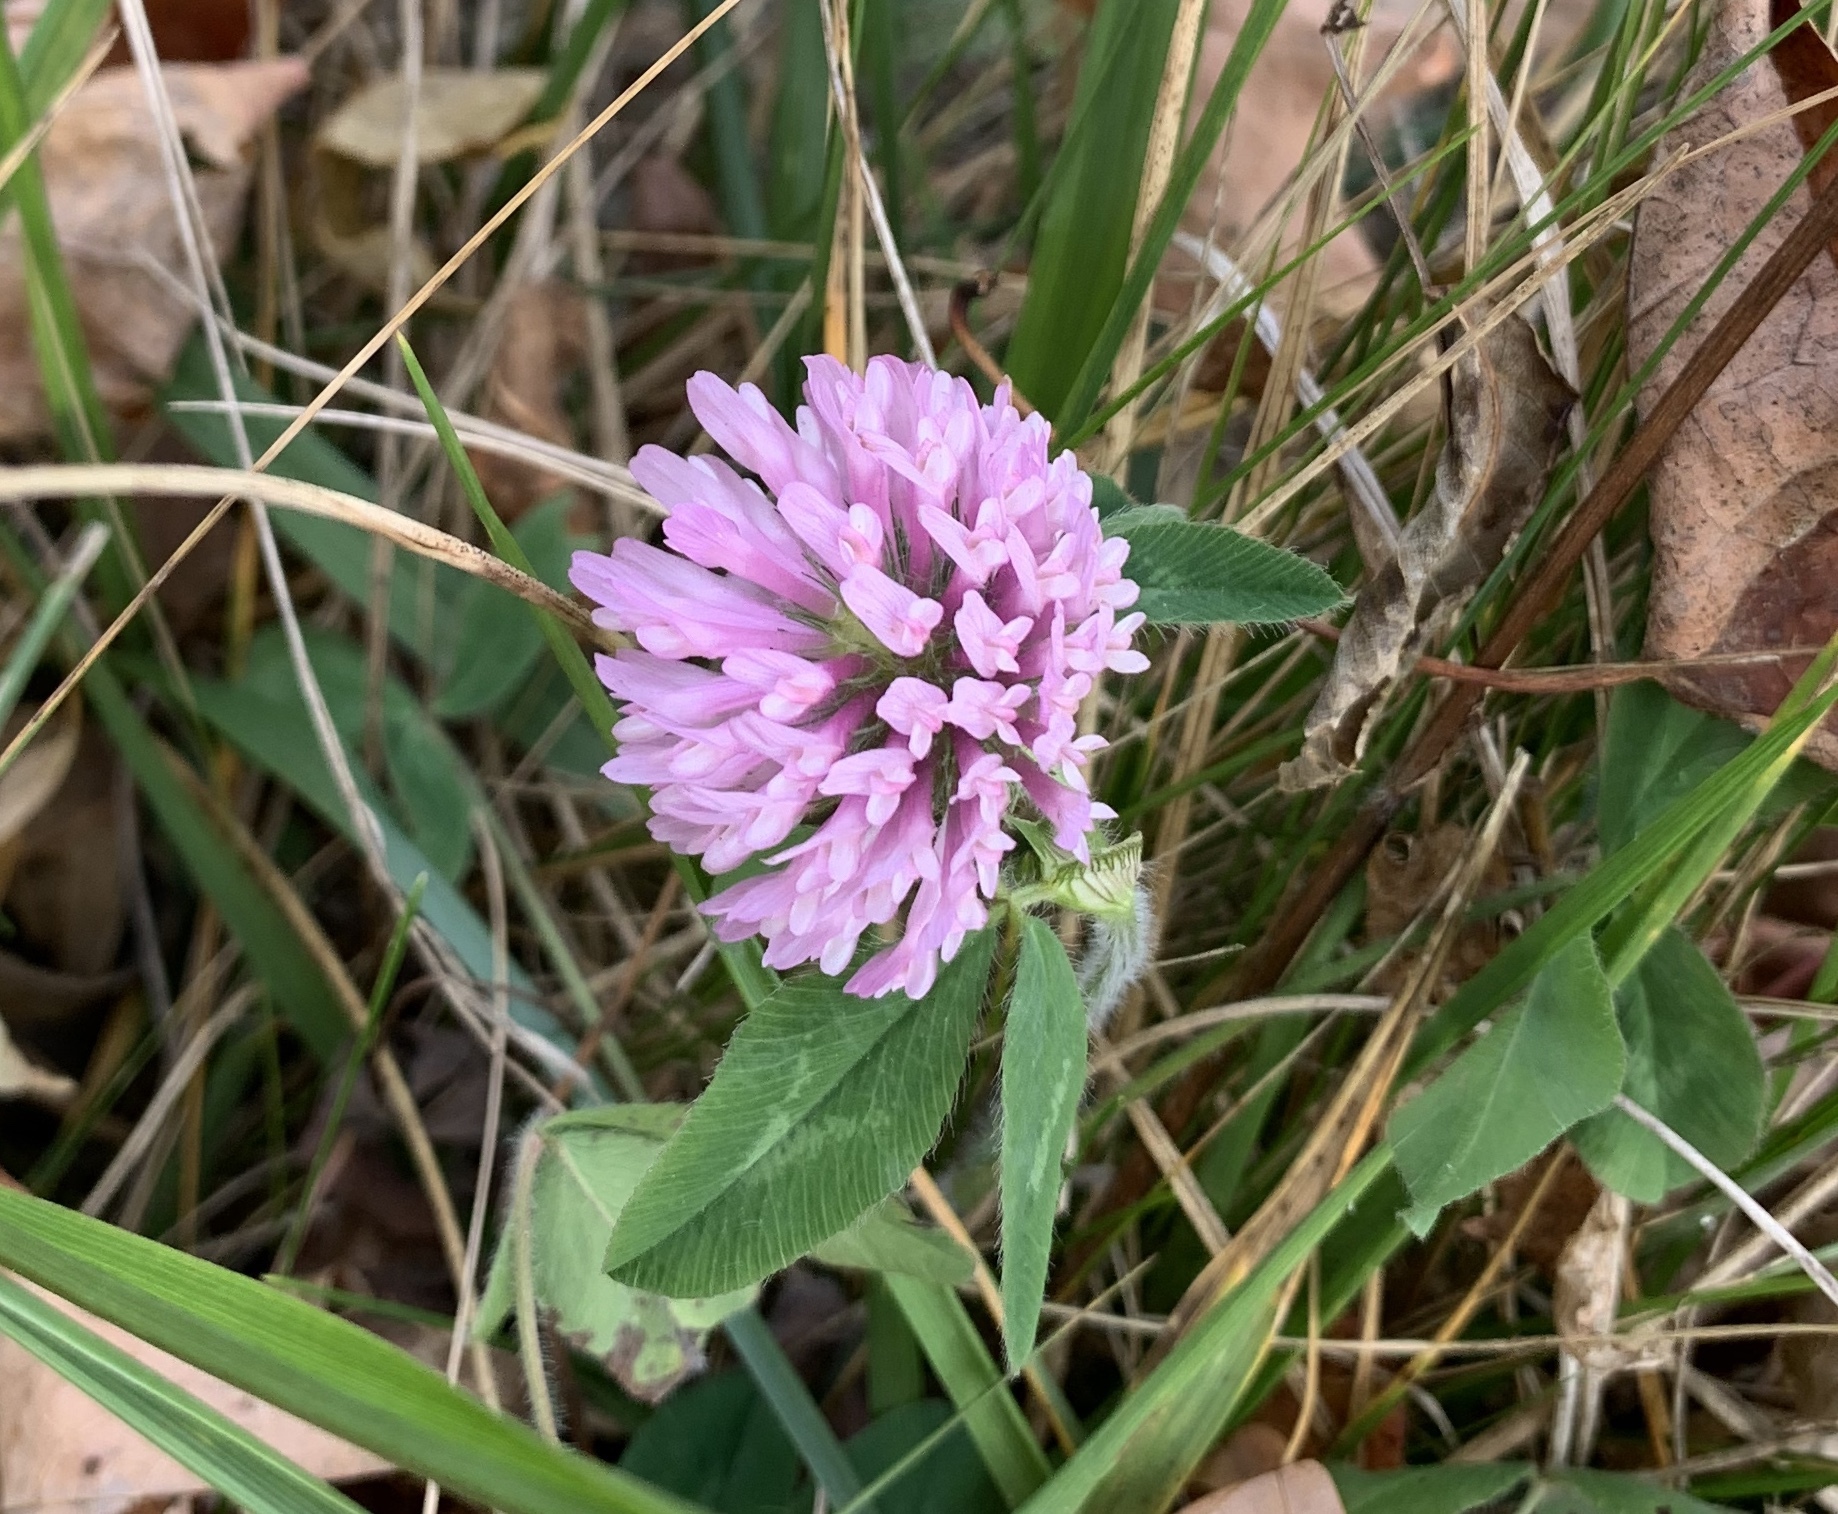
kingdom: Plantae
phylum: Tracheophyta
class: Magnoliopsida
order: Fabales
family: Fabaceae
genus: Trifolium
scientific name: Trifolium pratense
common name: Red clover
